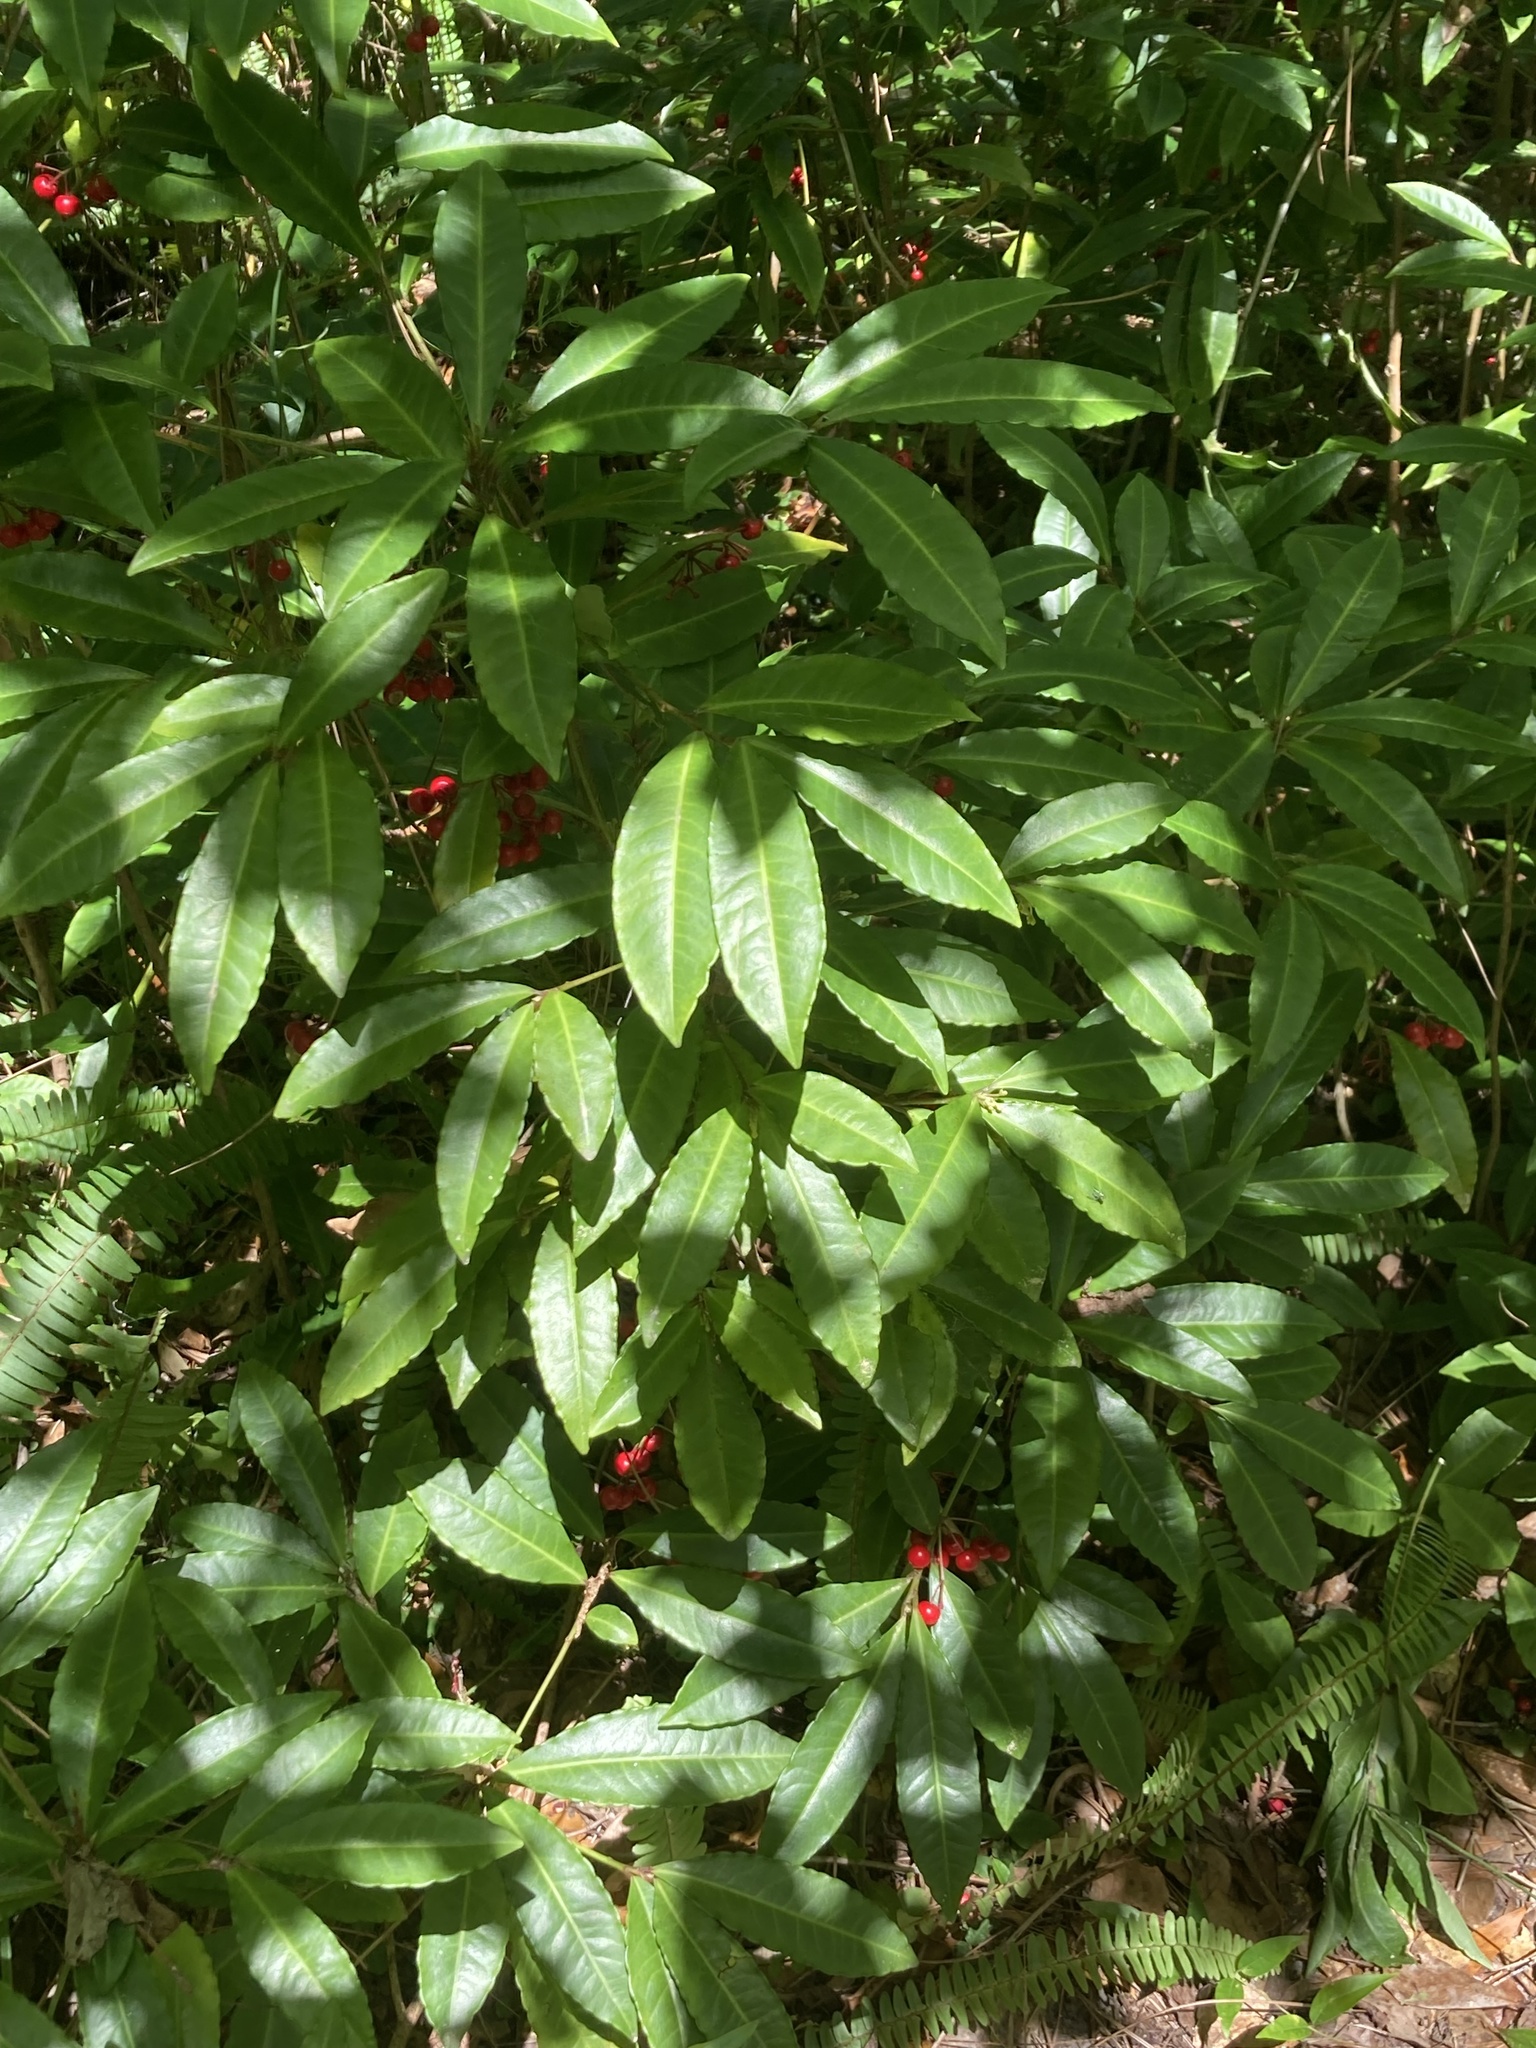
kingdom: Plantae
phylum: Tracheophyta
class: Magnoliopsida
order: Ericales
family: Primulaceae
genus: Ardisia
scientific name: Ardisia crenata
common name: Hen's eyes
